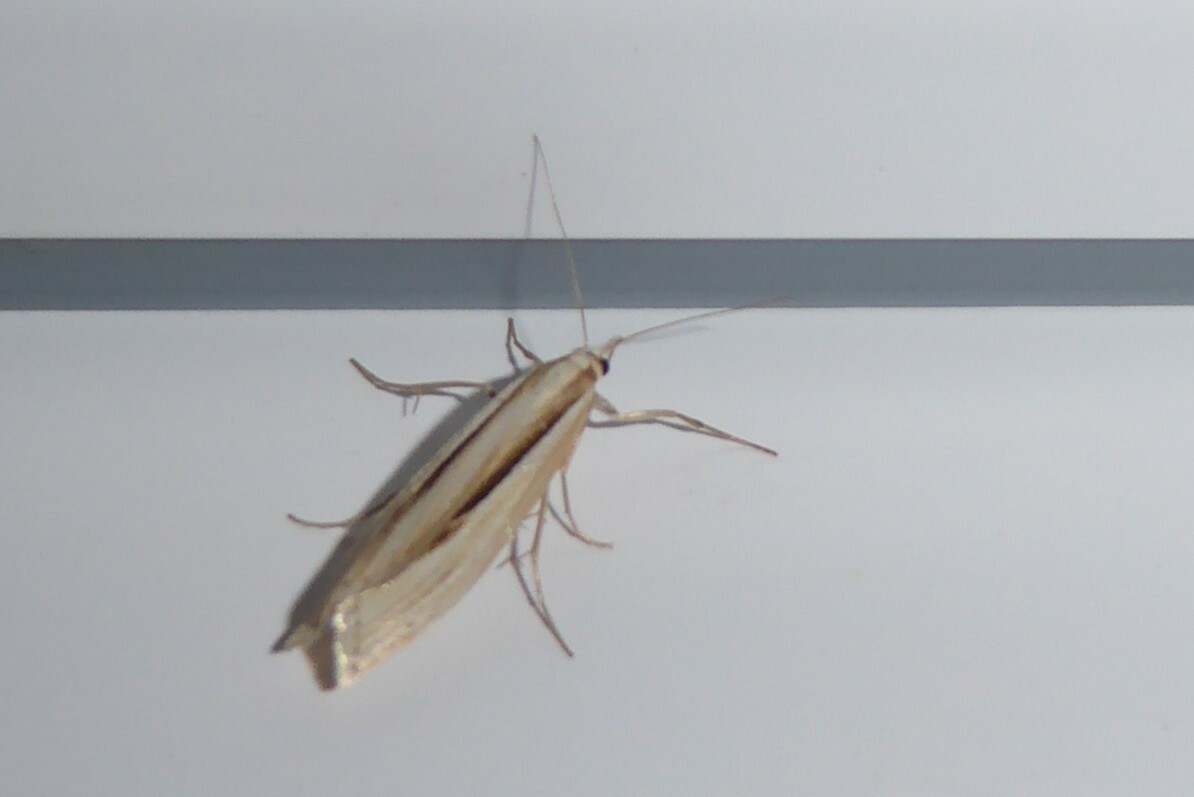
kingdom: Animalia
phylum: Arthropoda
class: Insecta
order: Lepidoptera
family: Crambidae
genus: Orocrambus
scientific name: Orocrambus ramosellus
